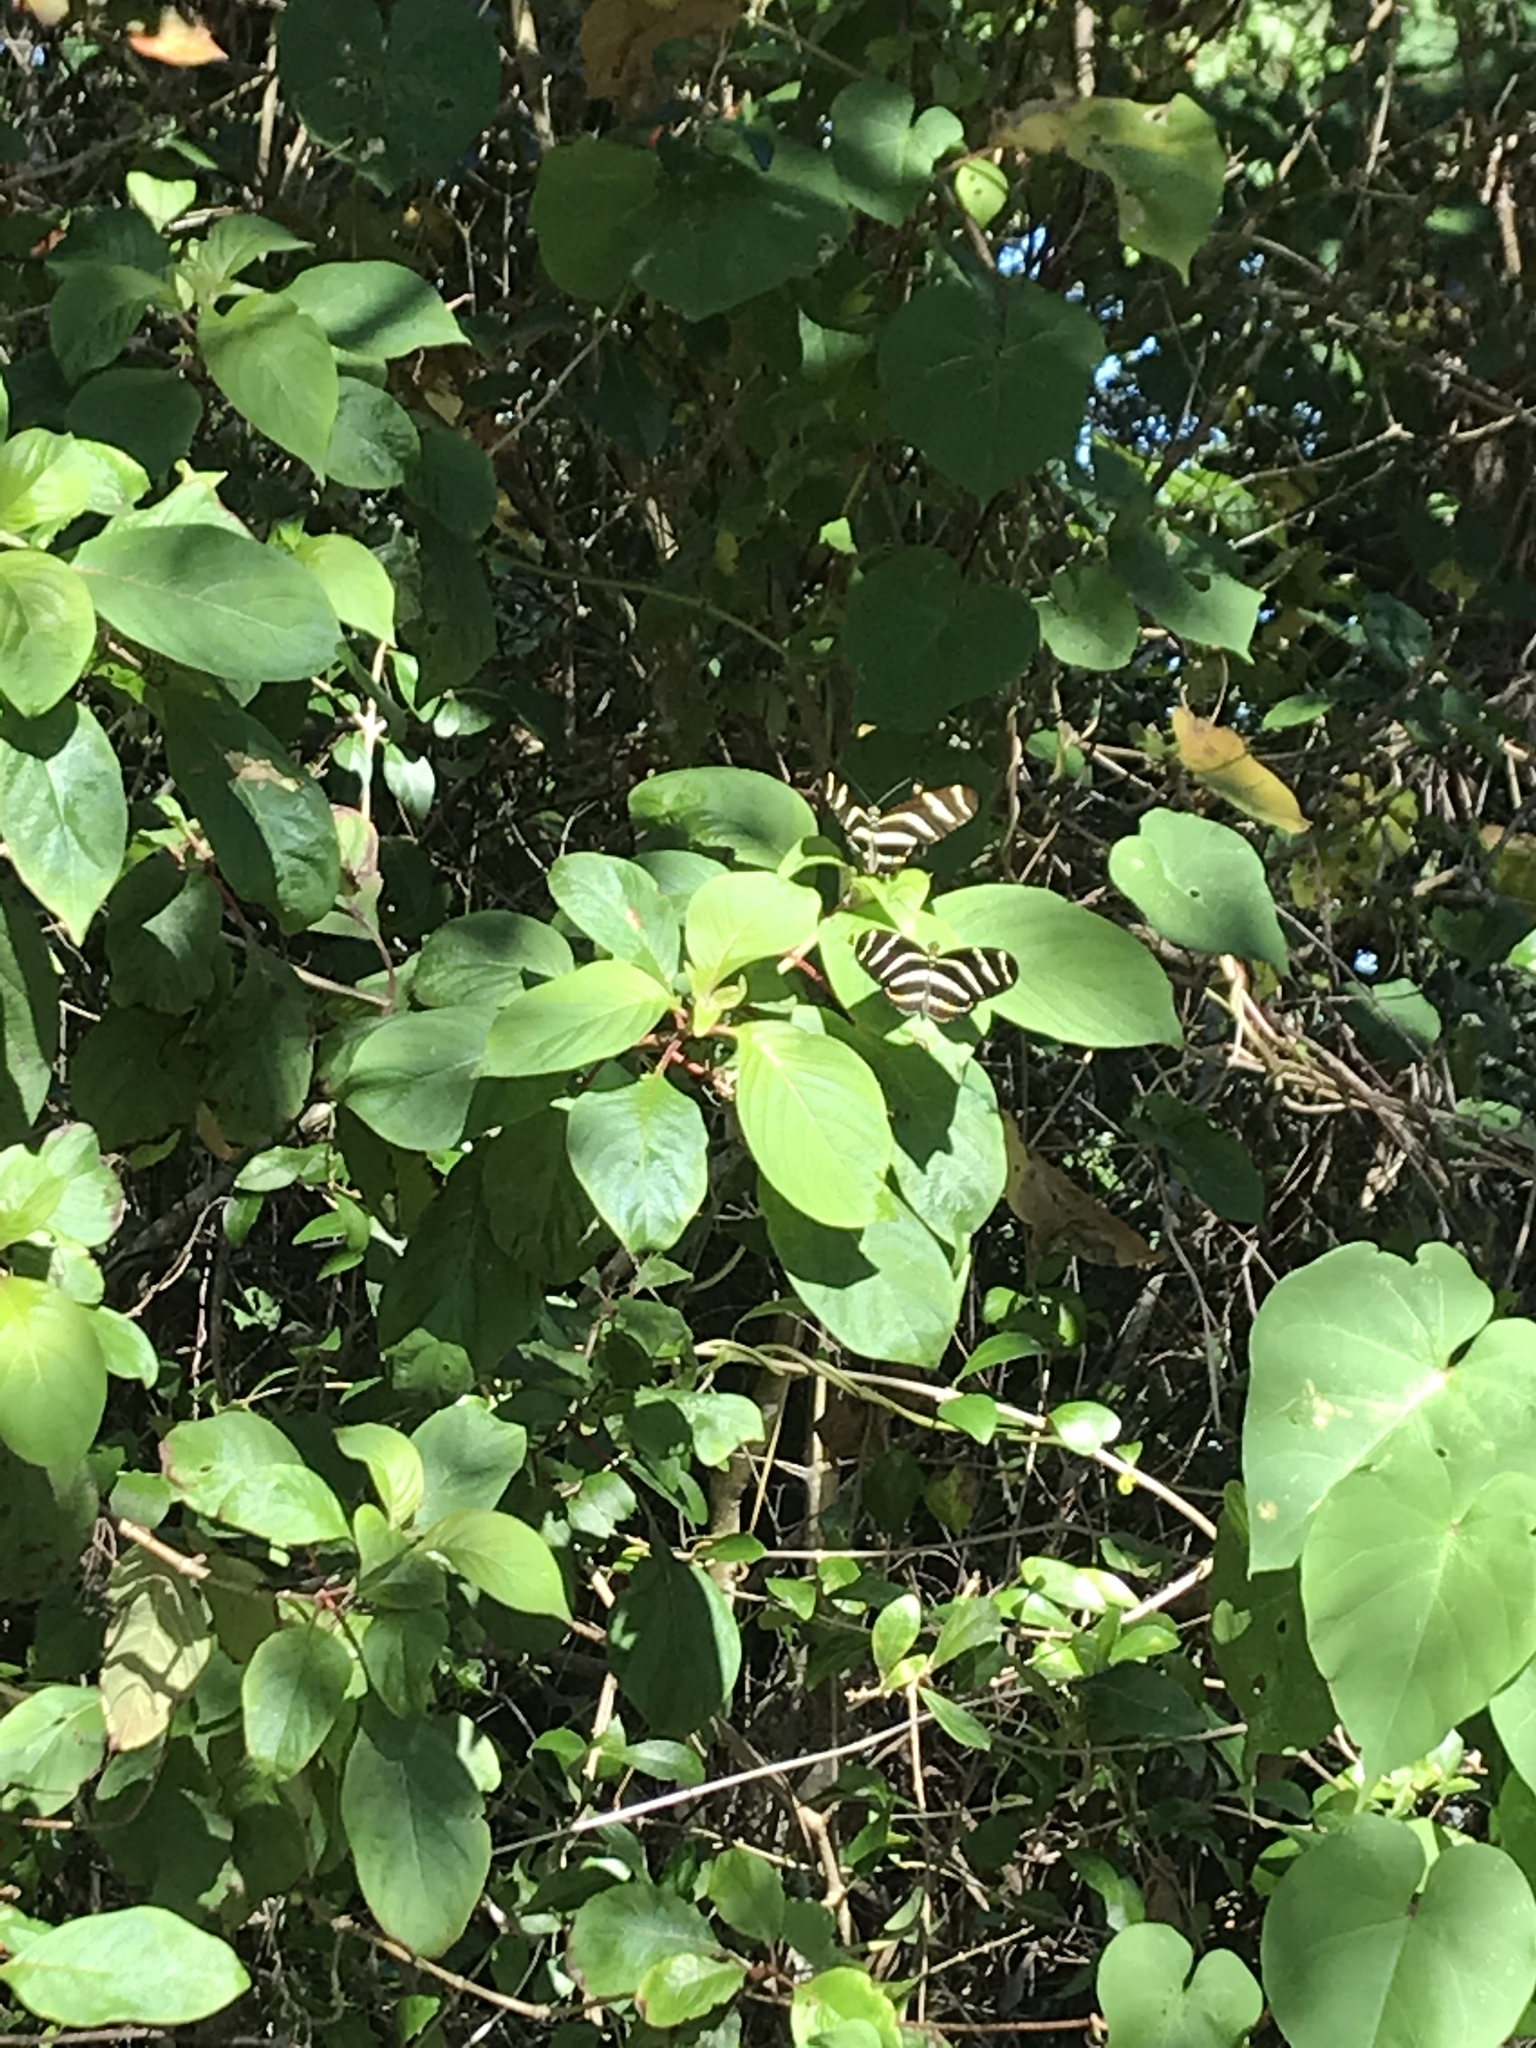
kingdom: Animalia
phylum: Arthropoda
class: Insecta
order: Lepidoptera
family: Nymphalidae
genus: Heliconius
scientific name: Heliconius charithonia
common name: Zebra long wing
